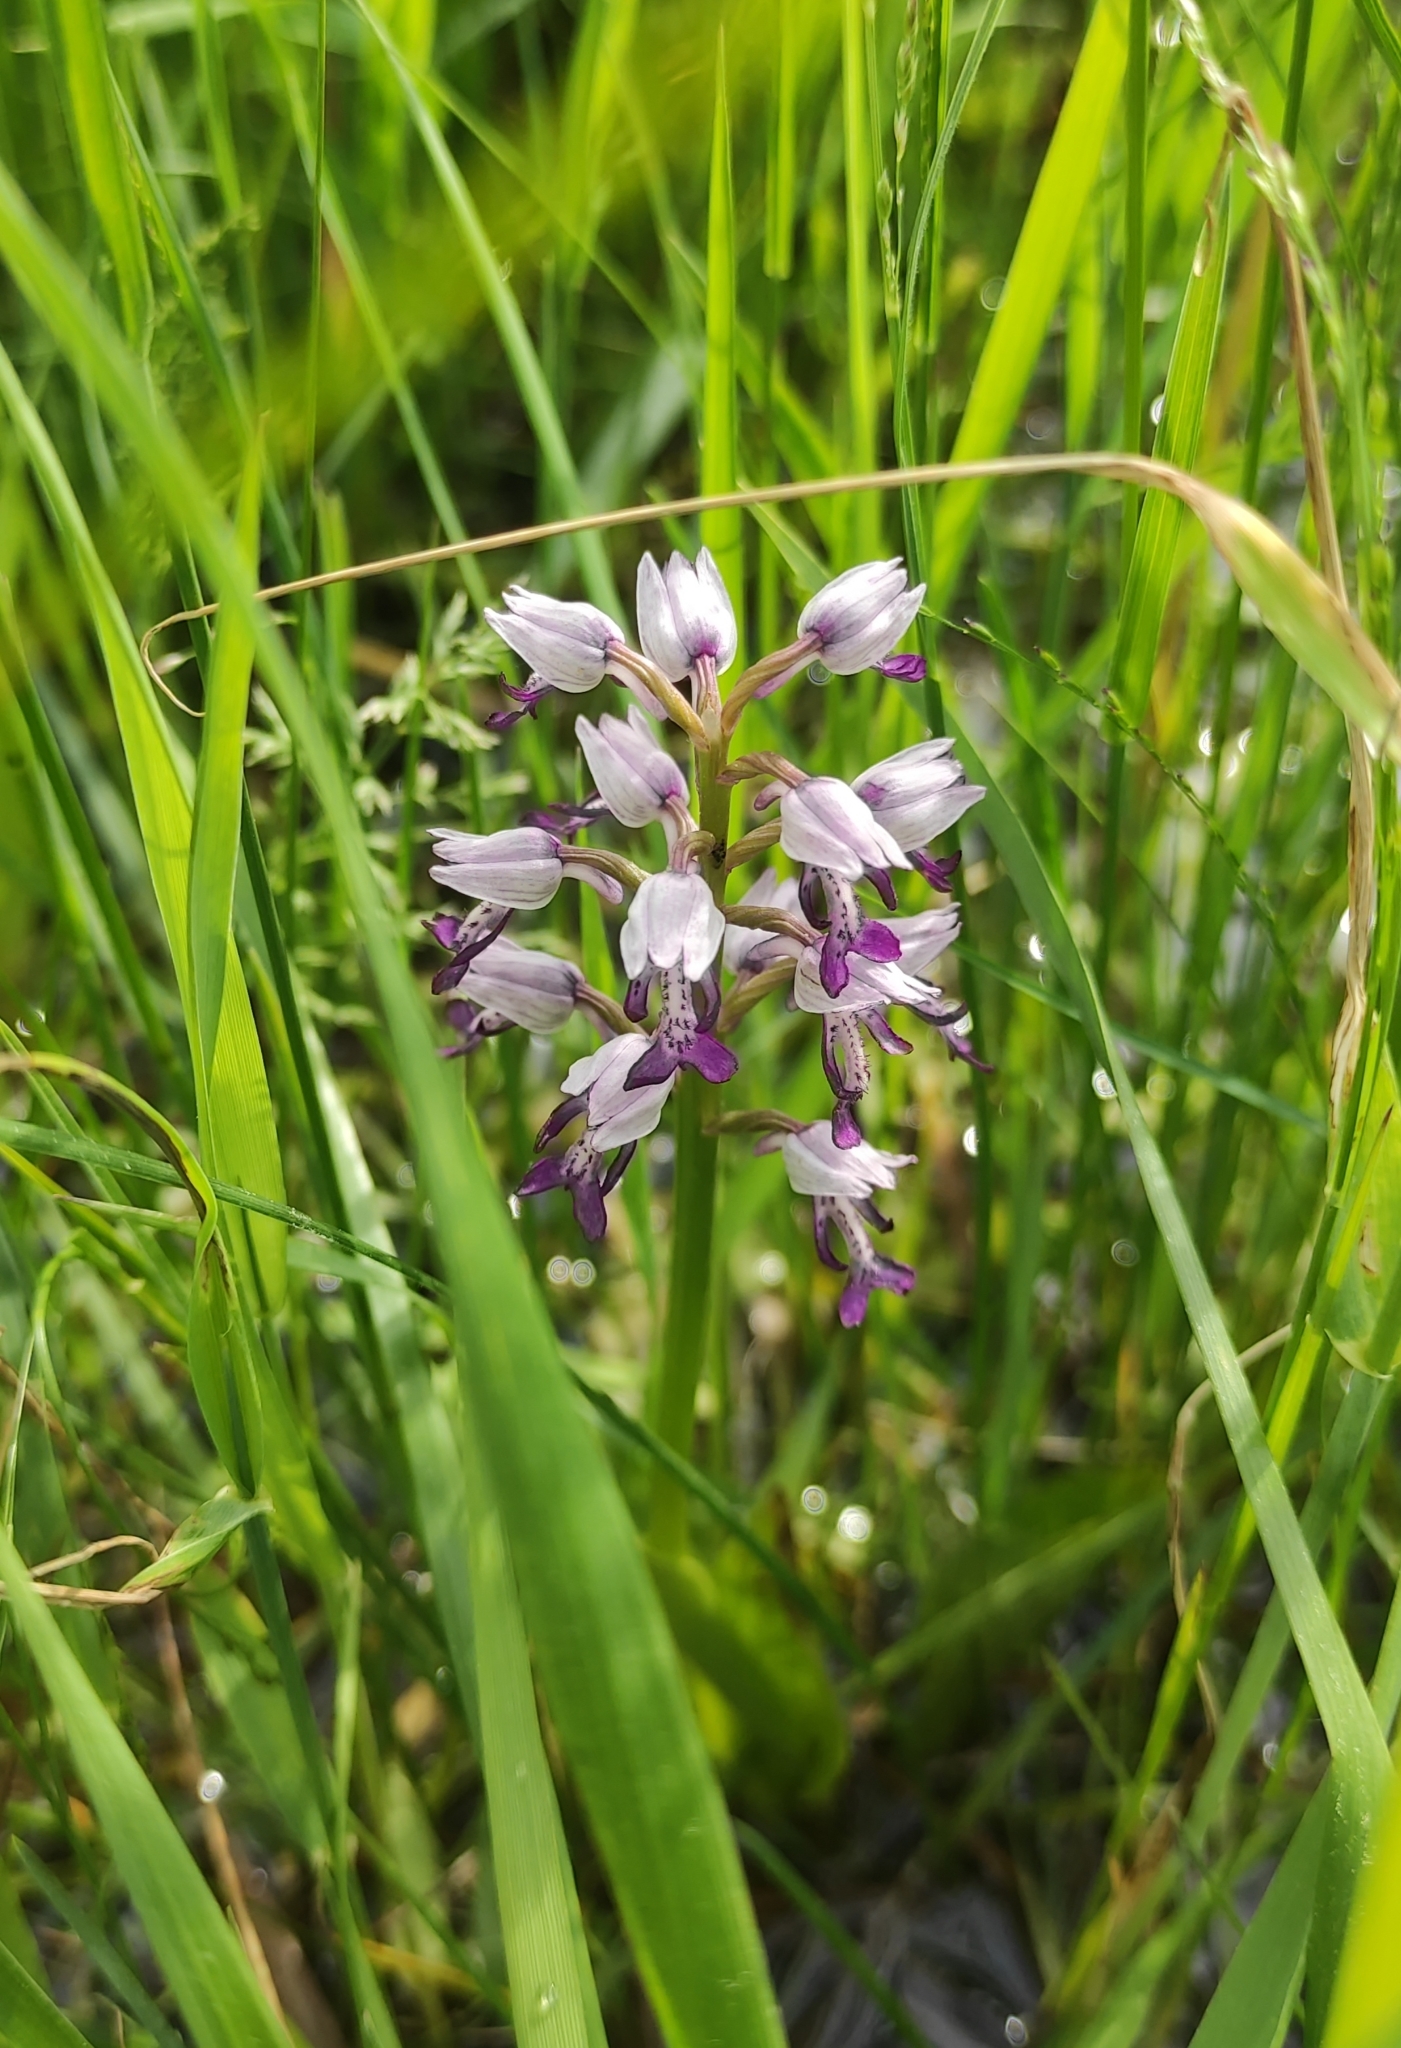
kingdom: Plantae
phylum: Tracheophyta
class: Liliopsida
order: Asparagales
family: Orchidaceae
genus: Orchis
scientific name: Orchis militaris
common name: Military orchid
